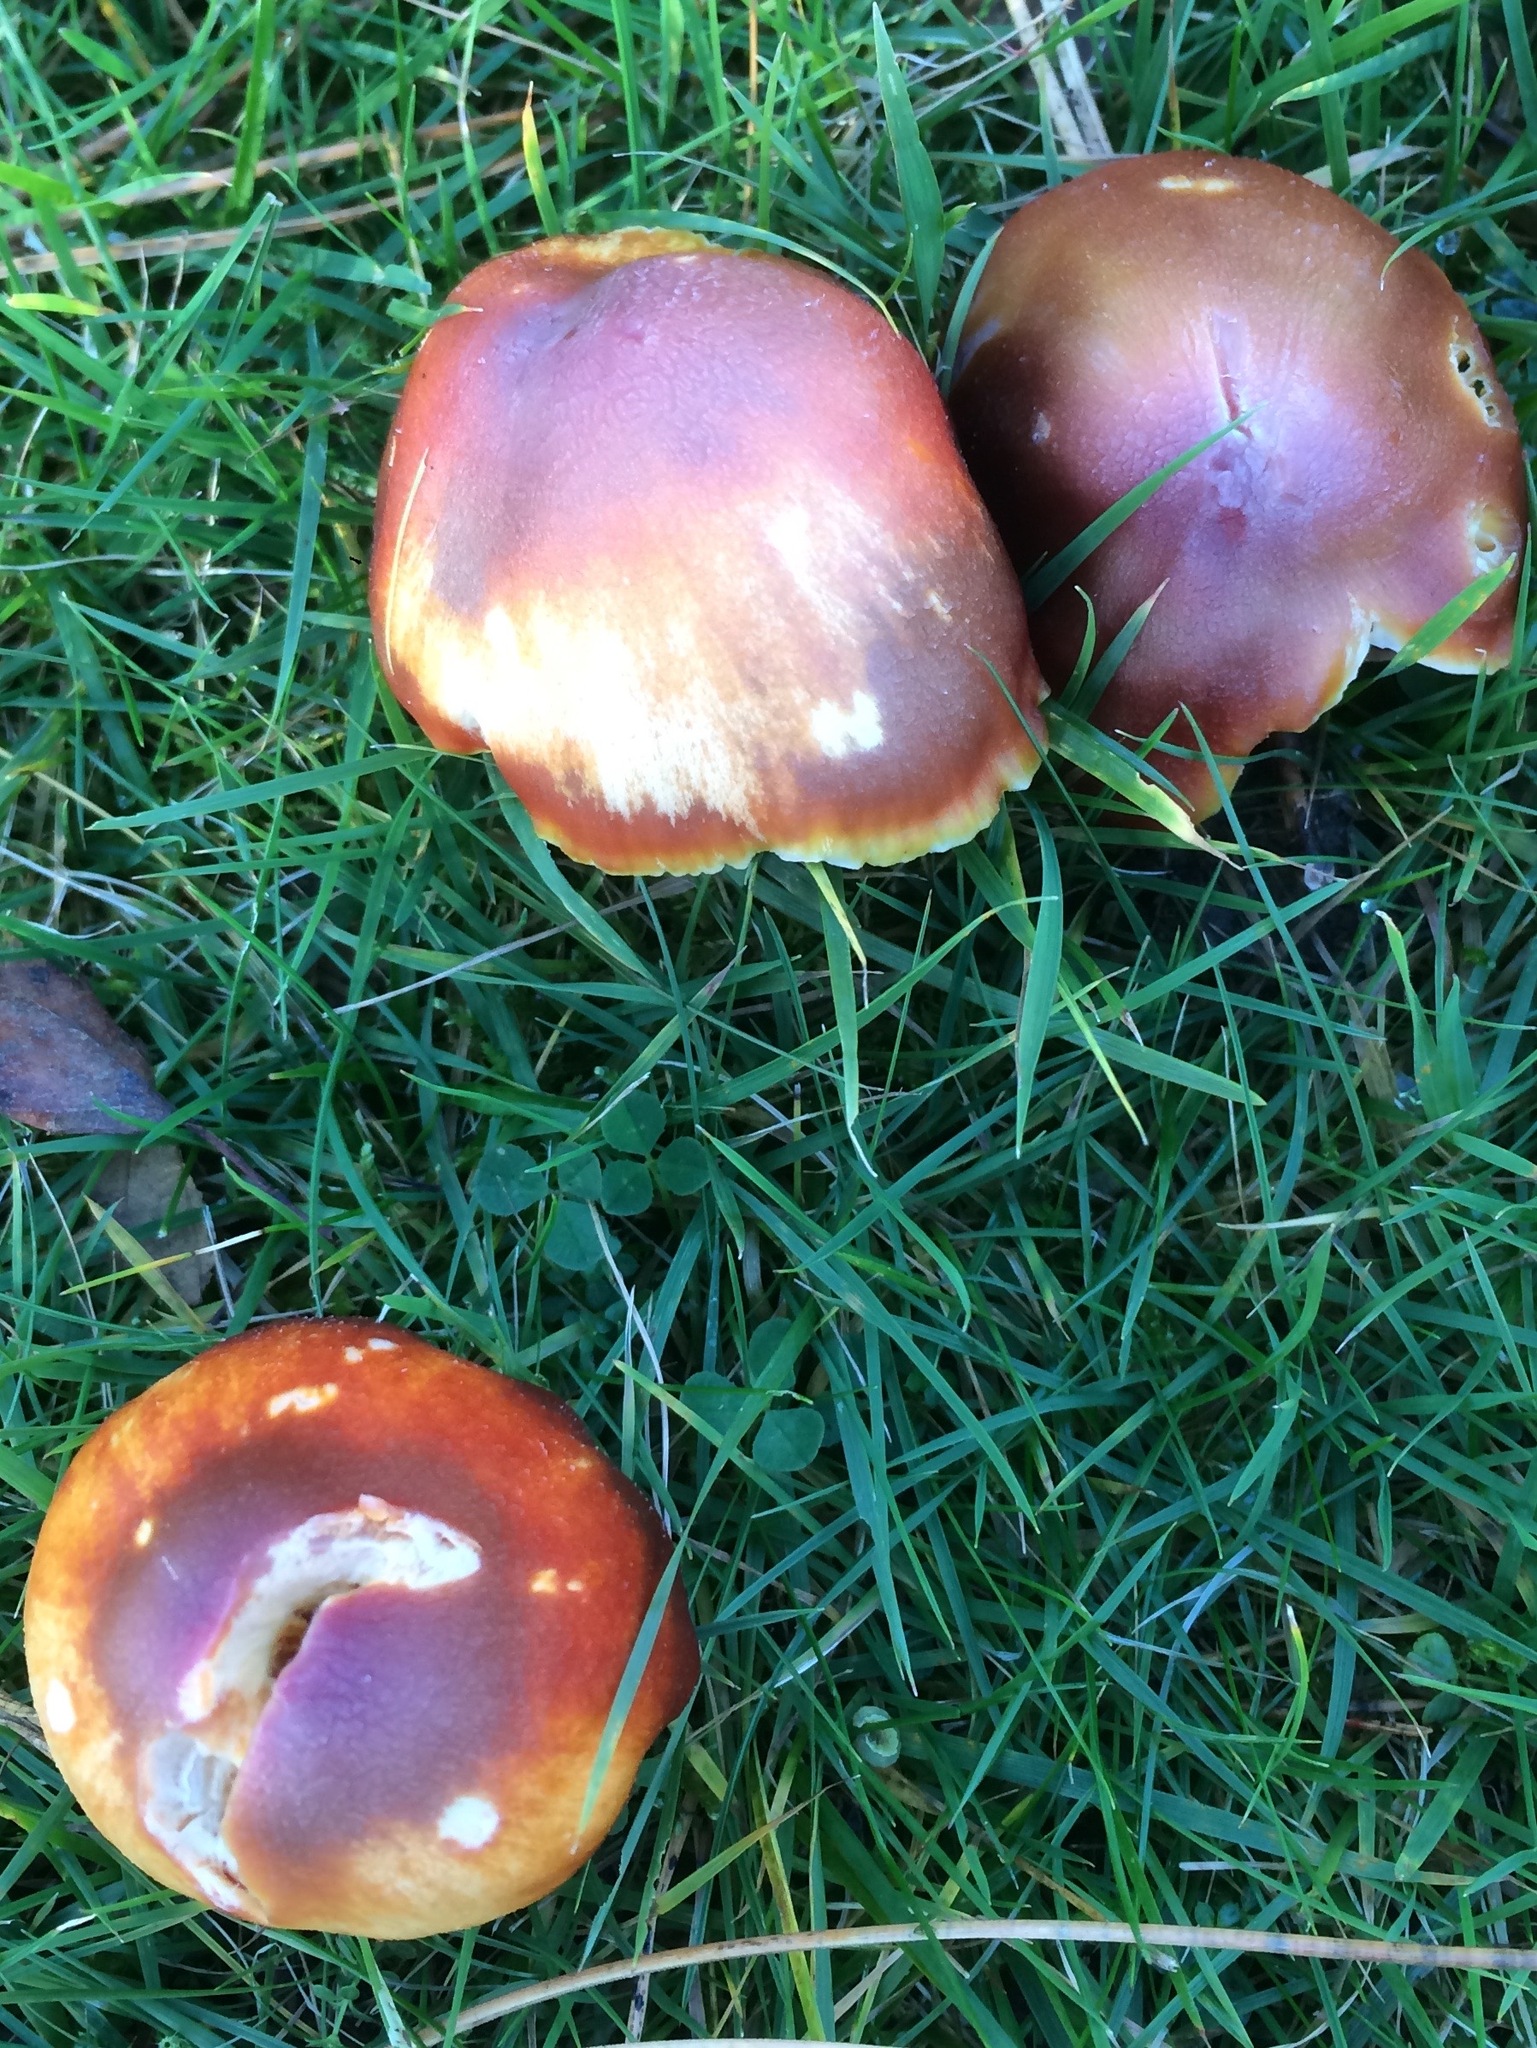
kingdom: Fungi
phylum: Basidiomycota
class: Agaricomycetes
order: Agaricales
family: Hygrophoraceae
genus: Hygrocybe
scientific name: Hygrocybe punicea
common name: Crimson waxcap
